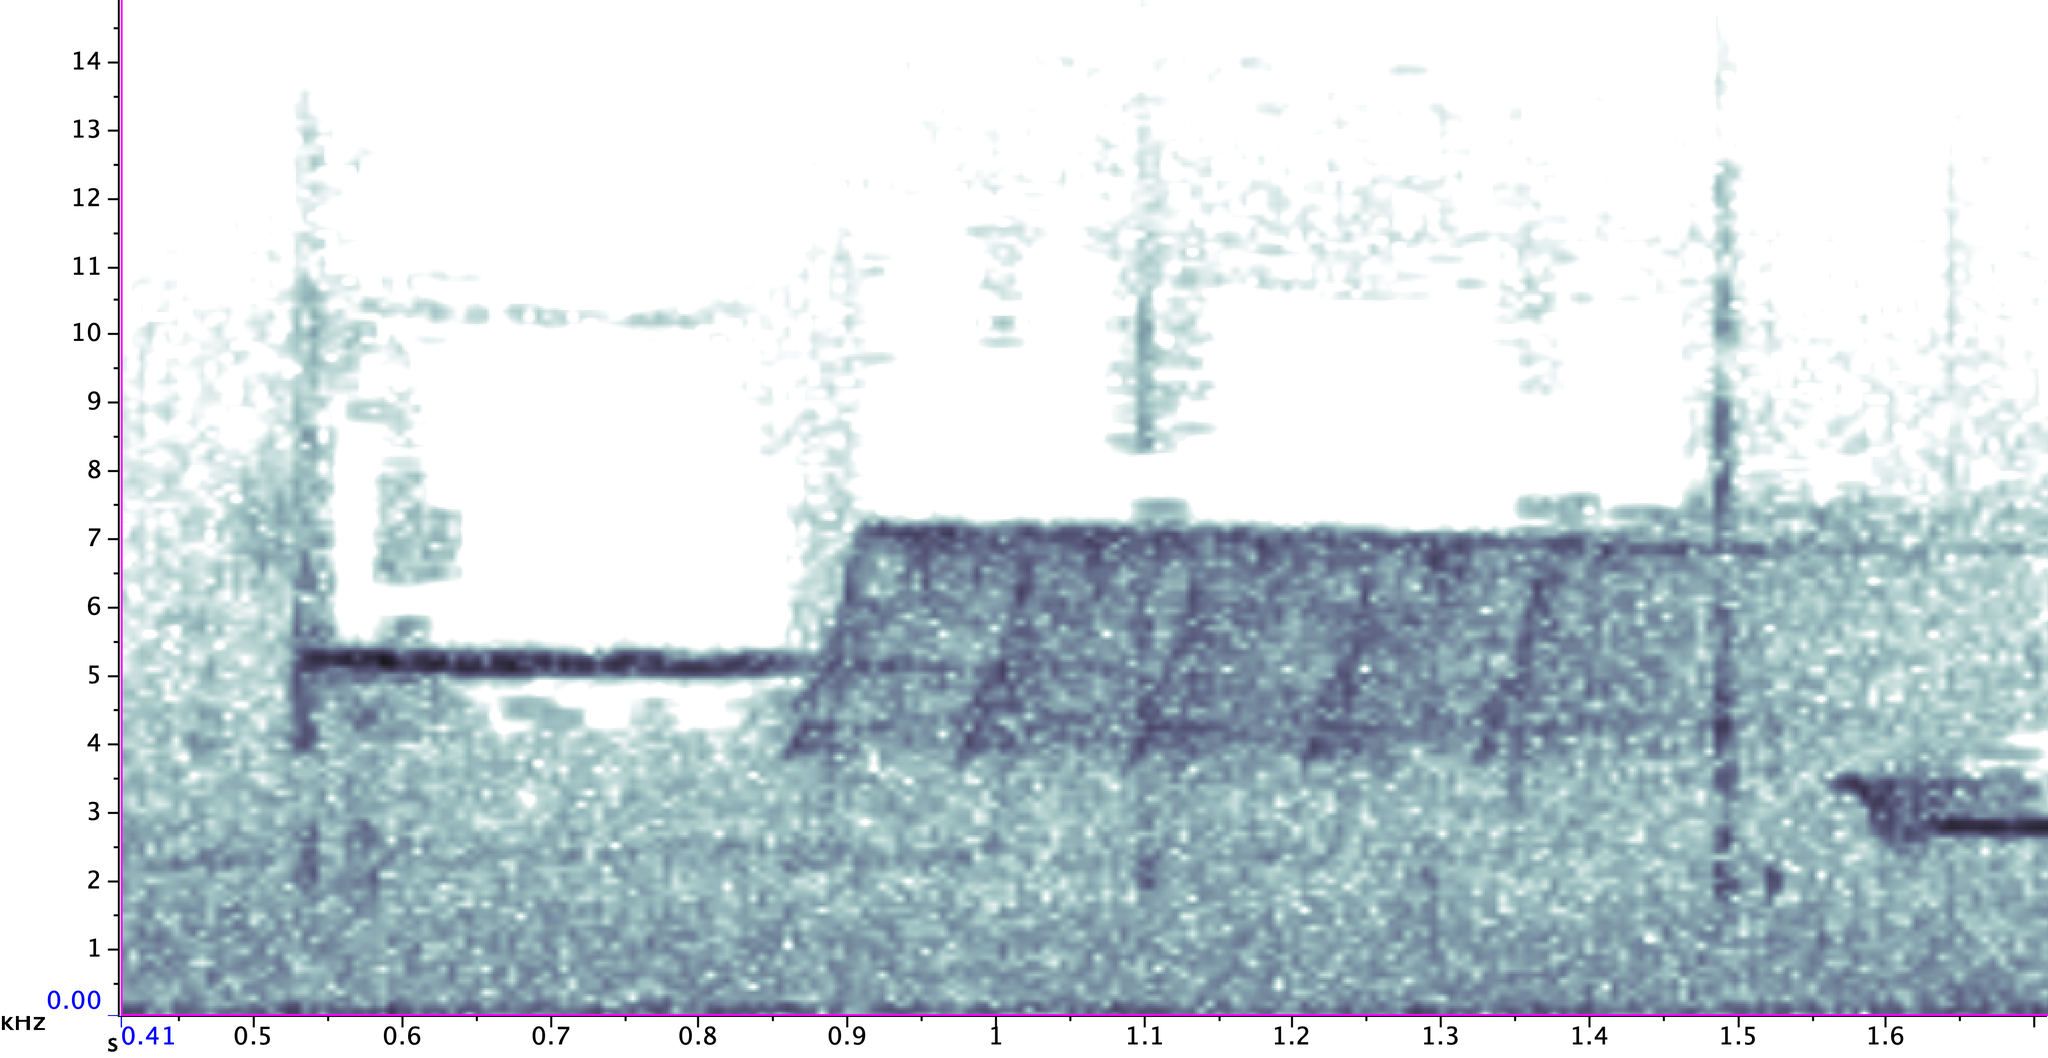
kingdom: Animalia
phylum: Chordata
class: Aves
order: Passeriformes
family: Passerellidae
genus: Pipilo
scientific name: Pipilo erythrophthalmus
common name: Eastern towhee
